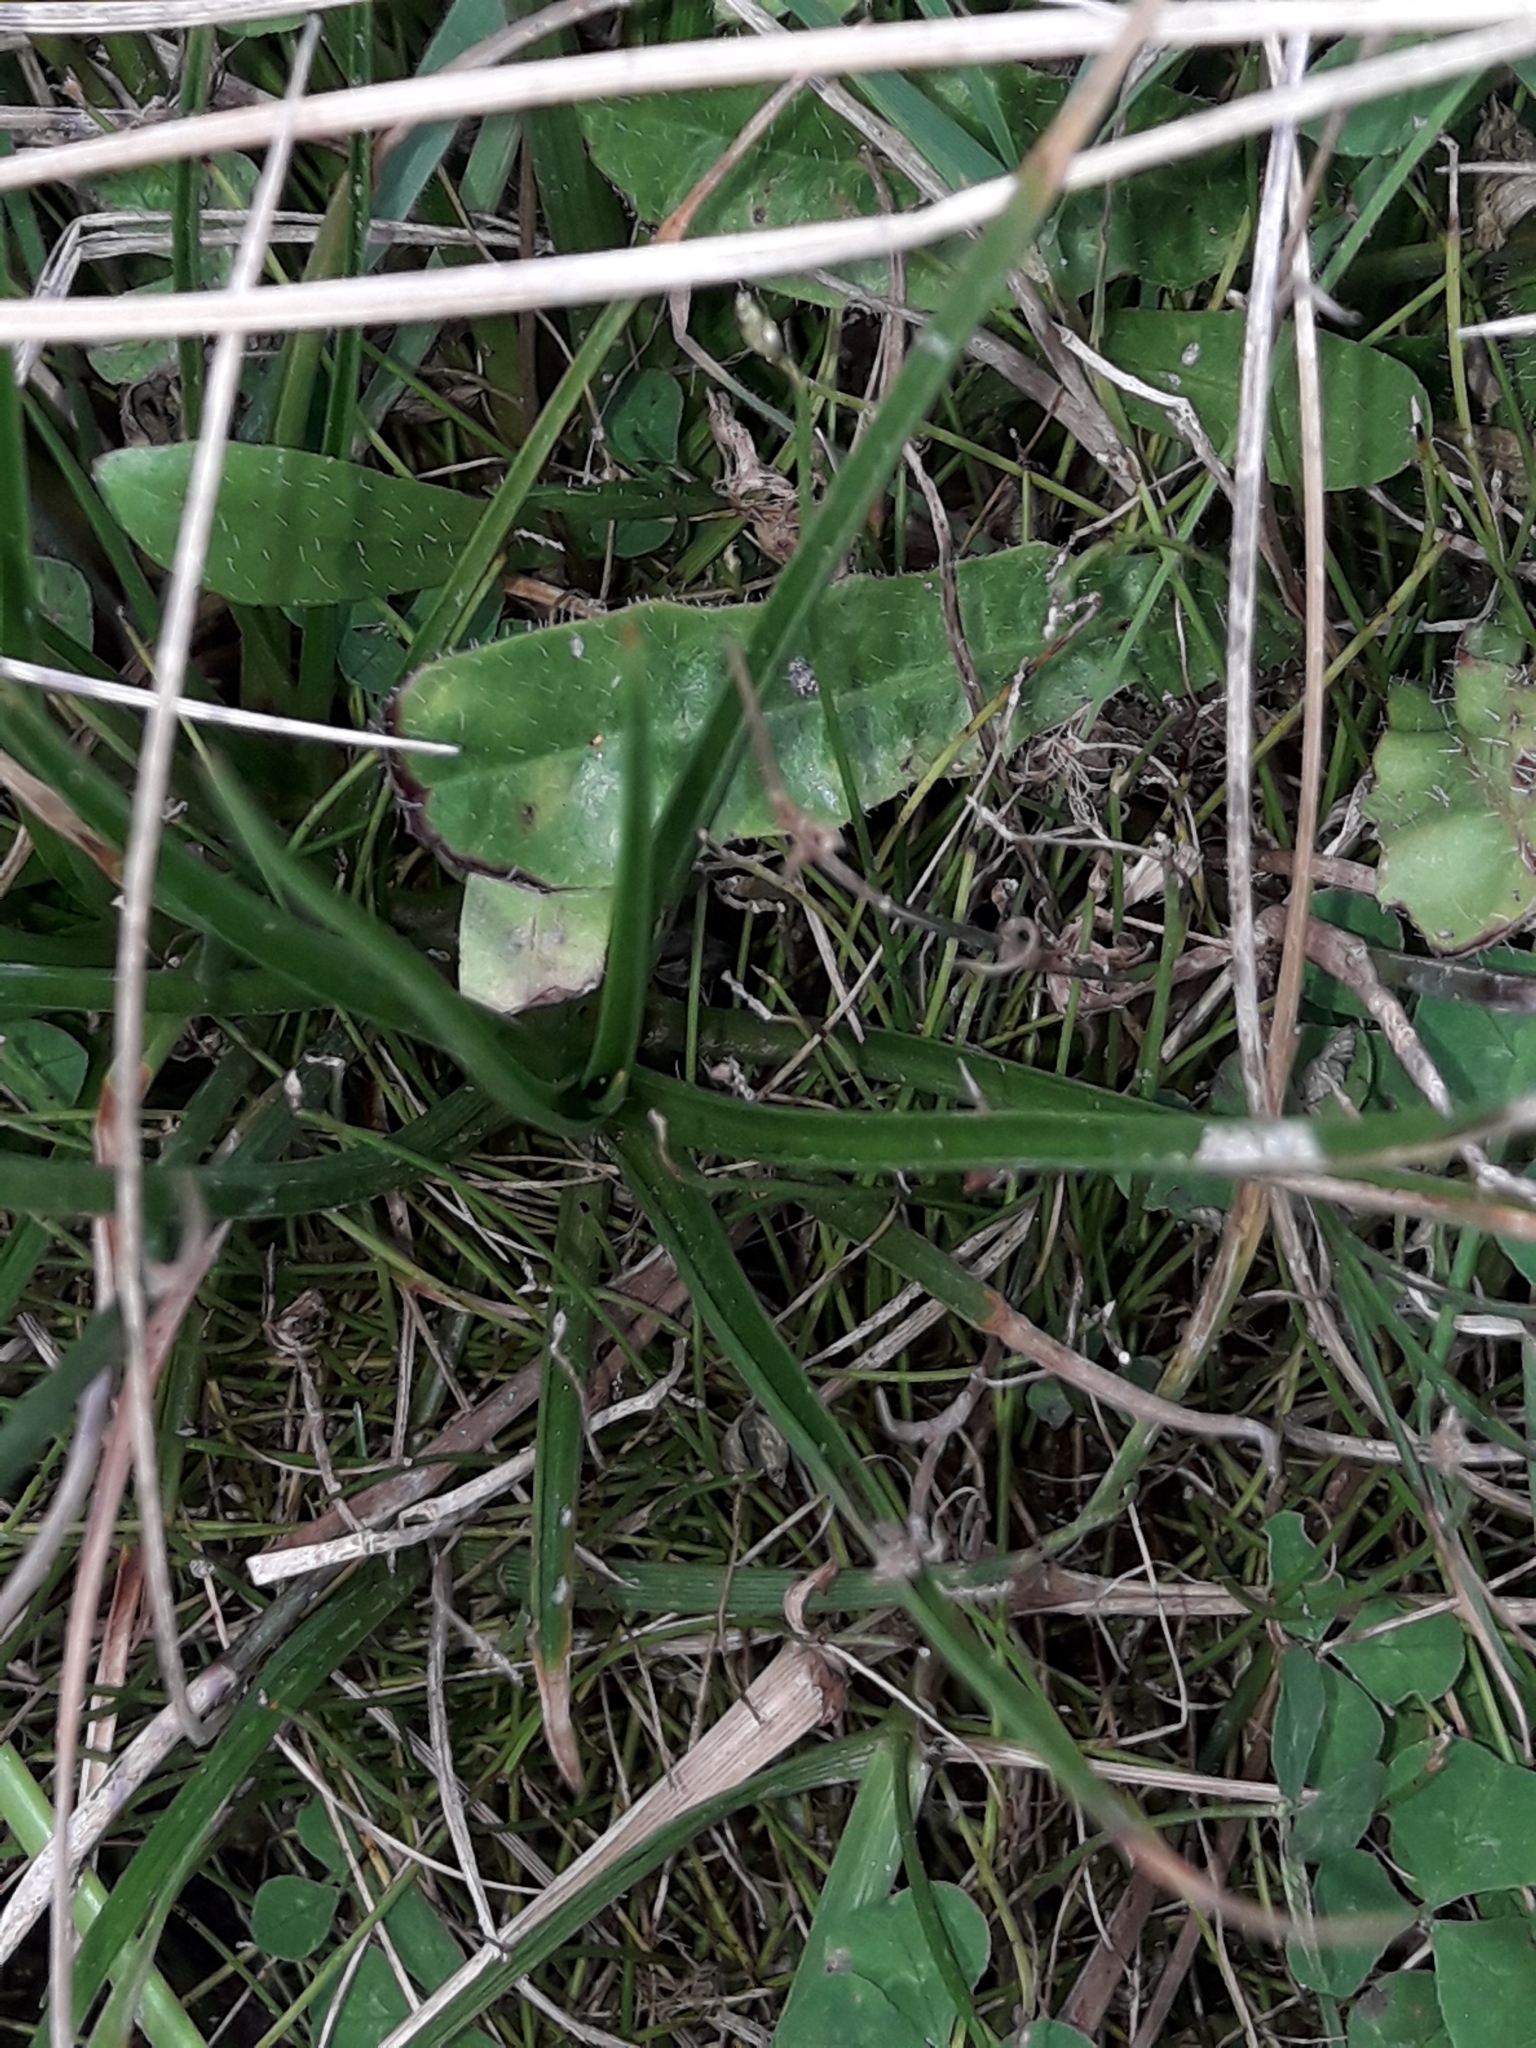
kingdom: Plantae
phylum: Tracheophyta
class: Liliopsida
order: Poales
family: Juncaceae
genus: Juncus
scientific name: Juncus caespiticius
